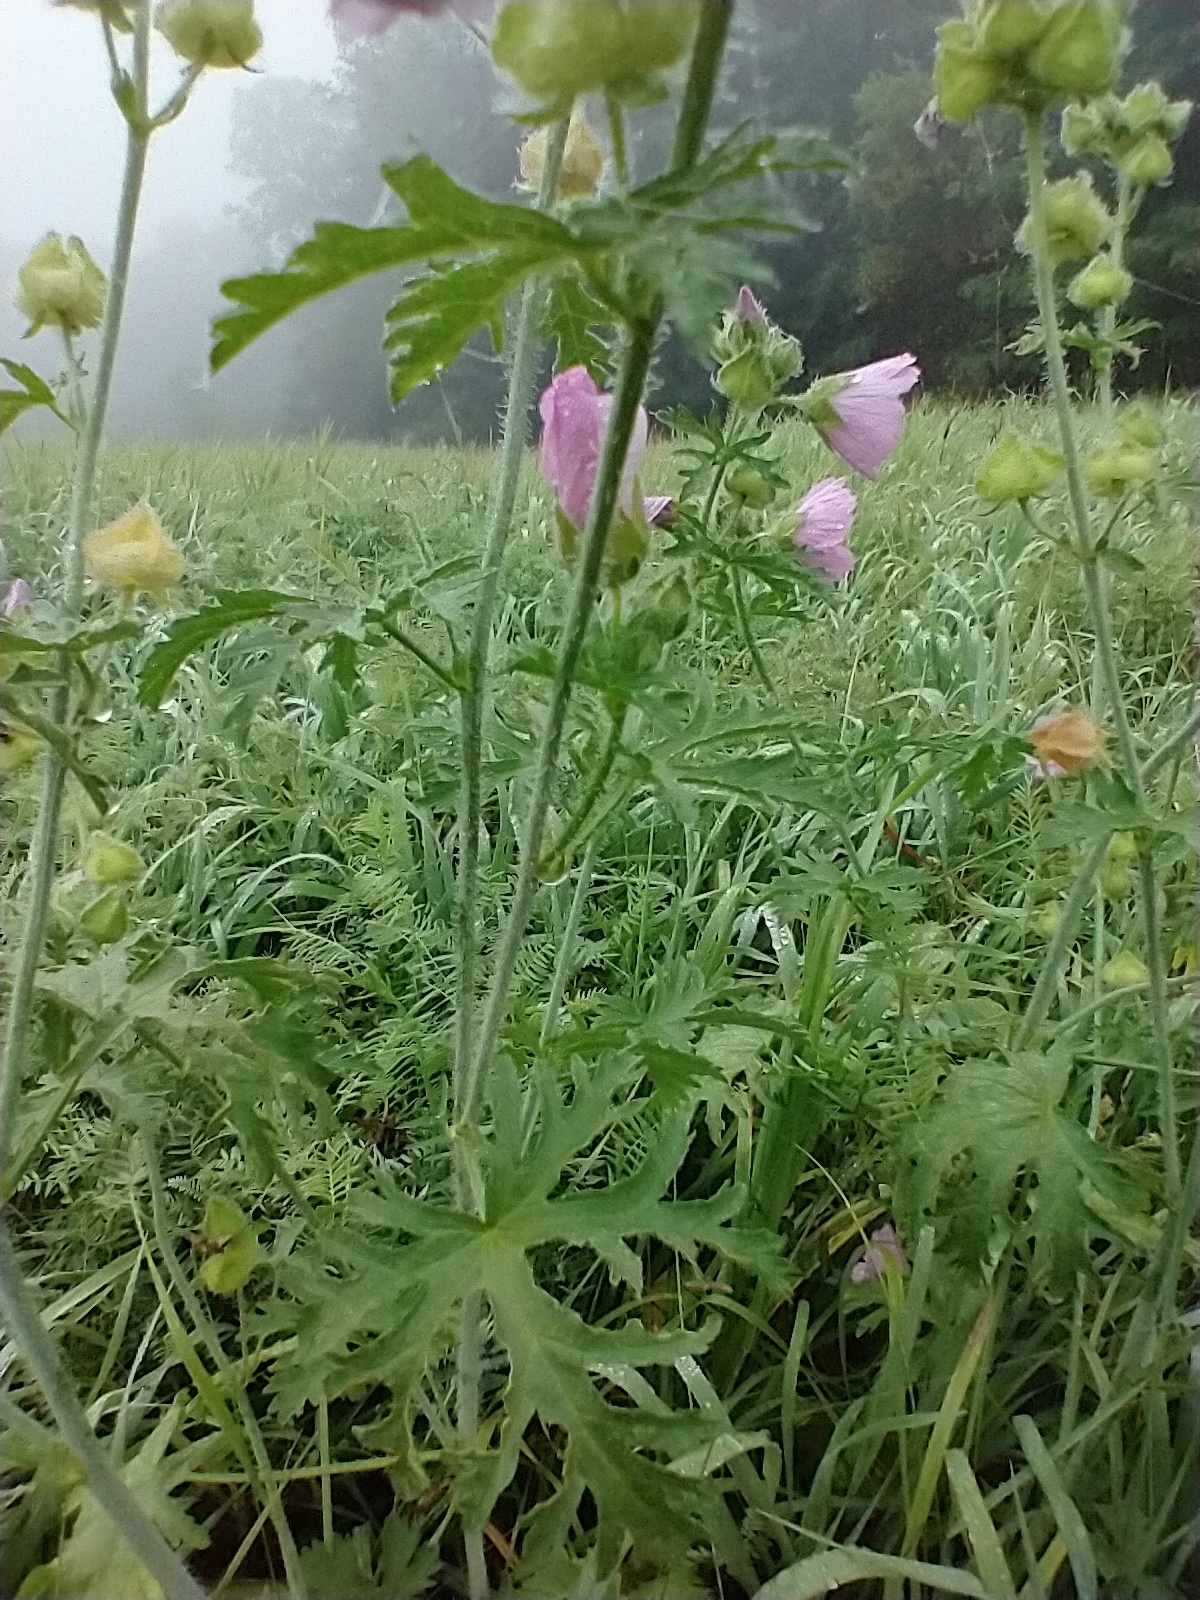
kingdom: Plantae
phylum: Tracheophyta
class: Magnoliopsida
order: Malvales
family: Malvaceae
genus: Malva
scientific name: Malva moschata
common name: Musk mallow
